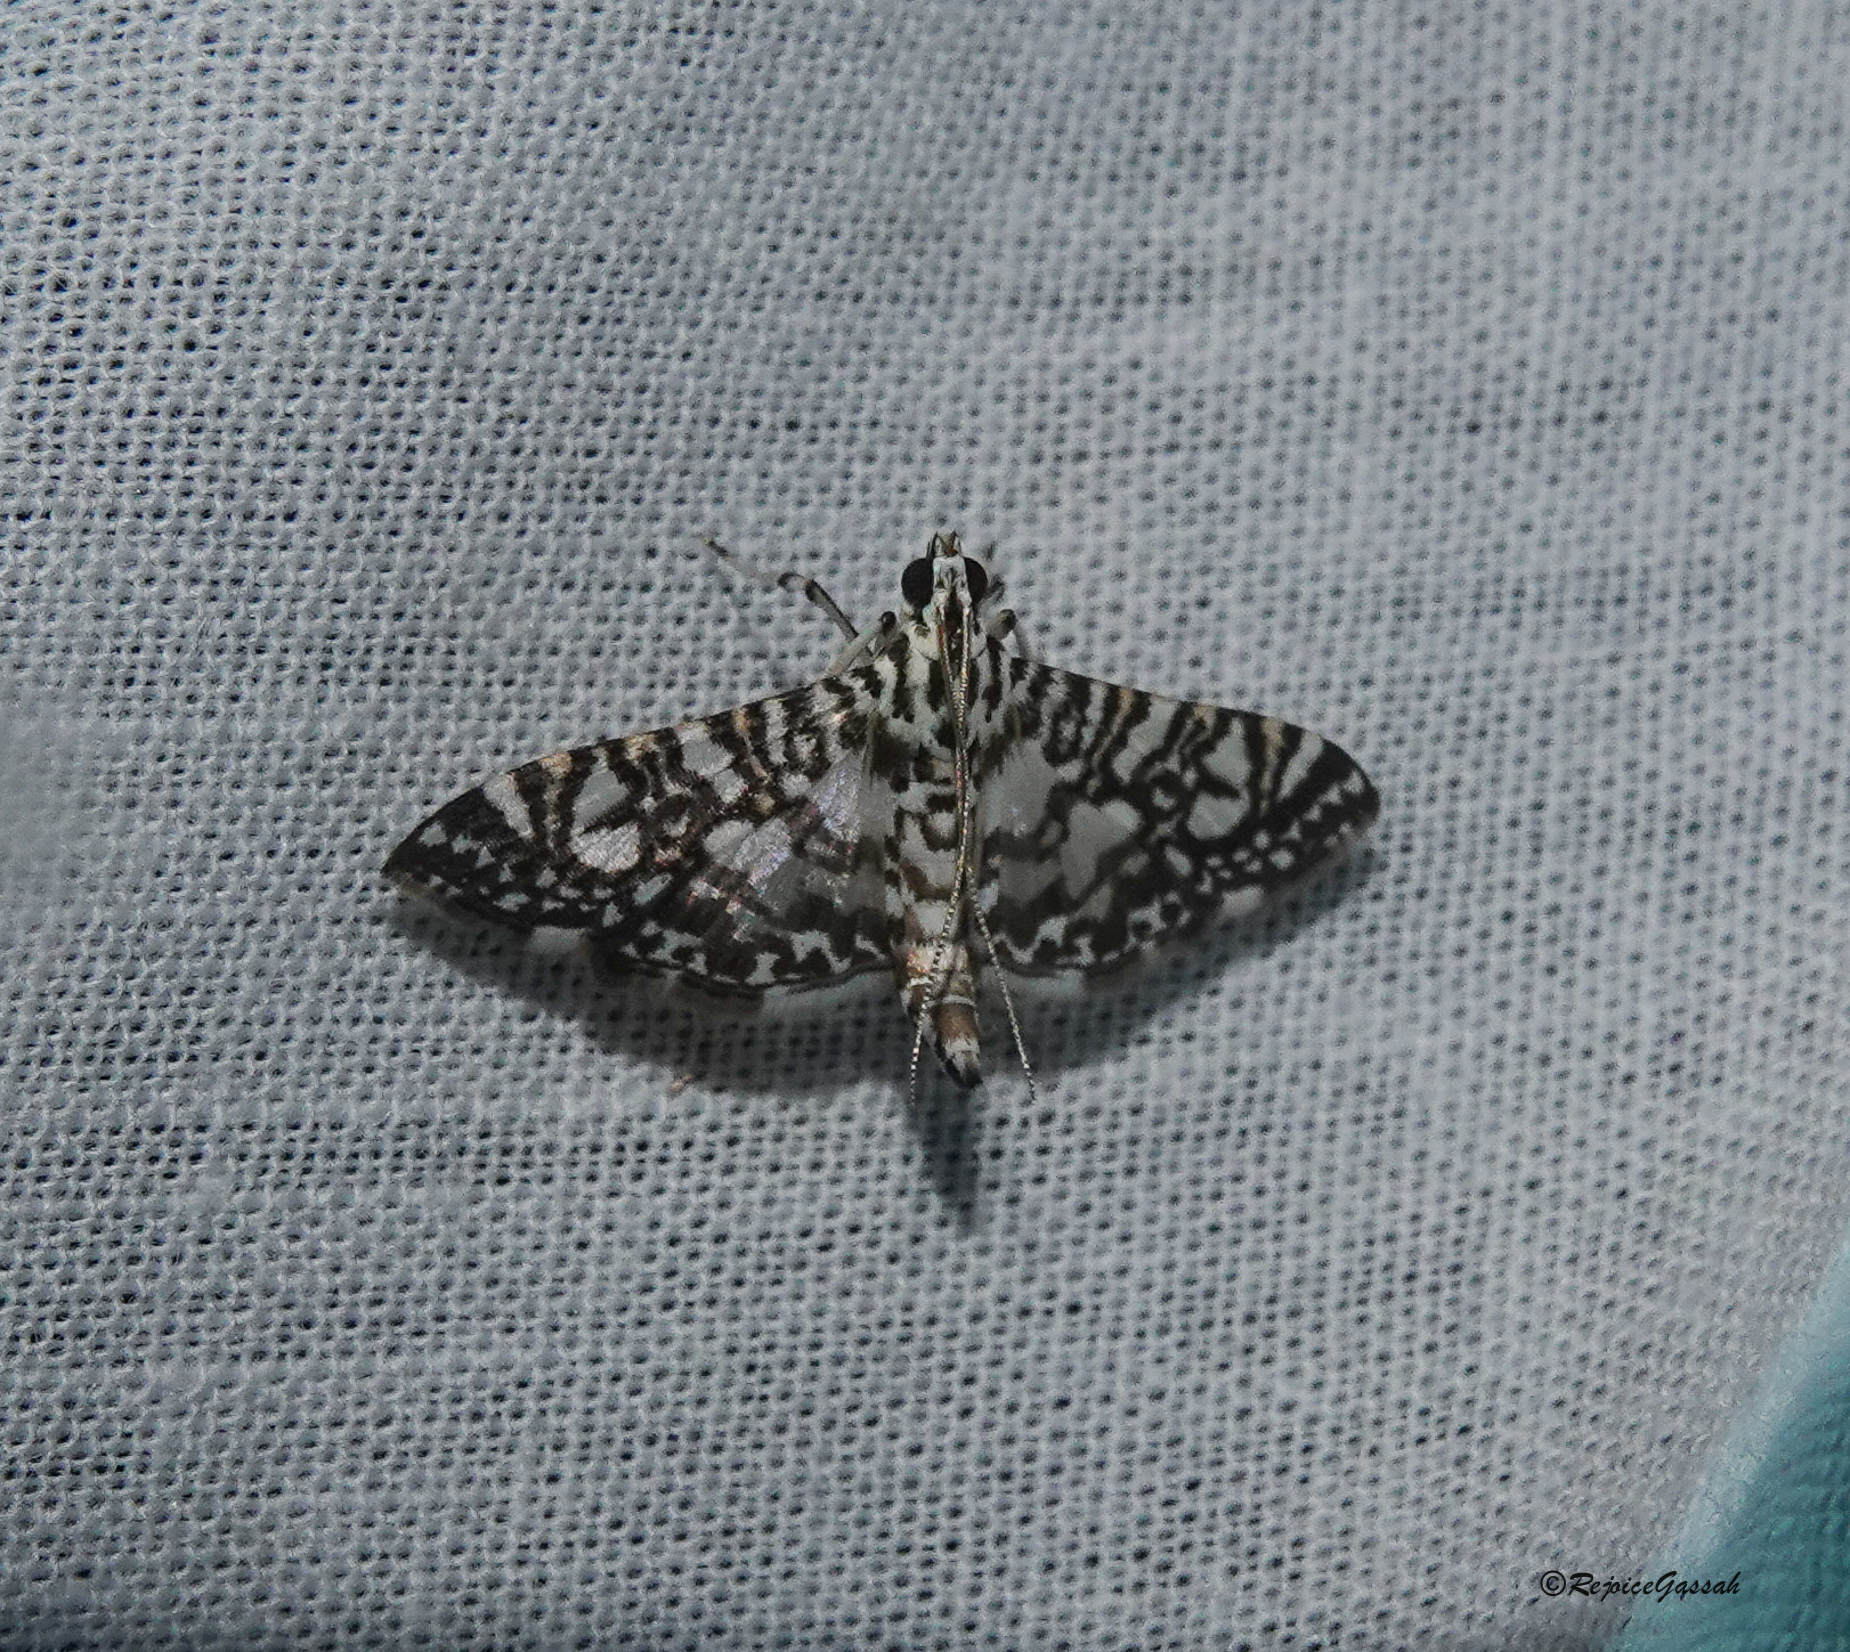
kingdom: Animalia
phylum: Arthropoda
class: Insecta
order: Lepidoptera
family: Crambidae
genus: Glyphodes
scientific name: Glyphodes onychinalis
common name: Swan plant moth
